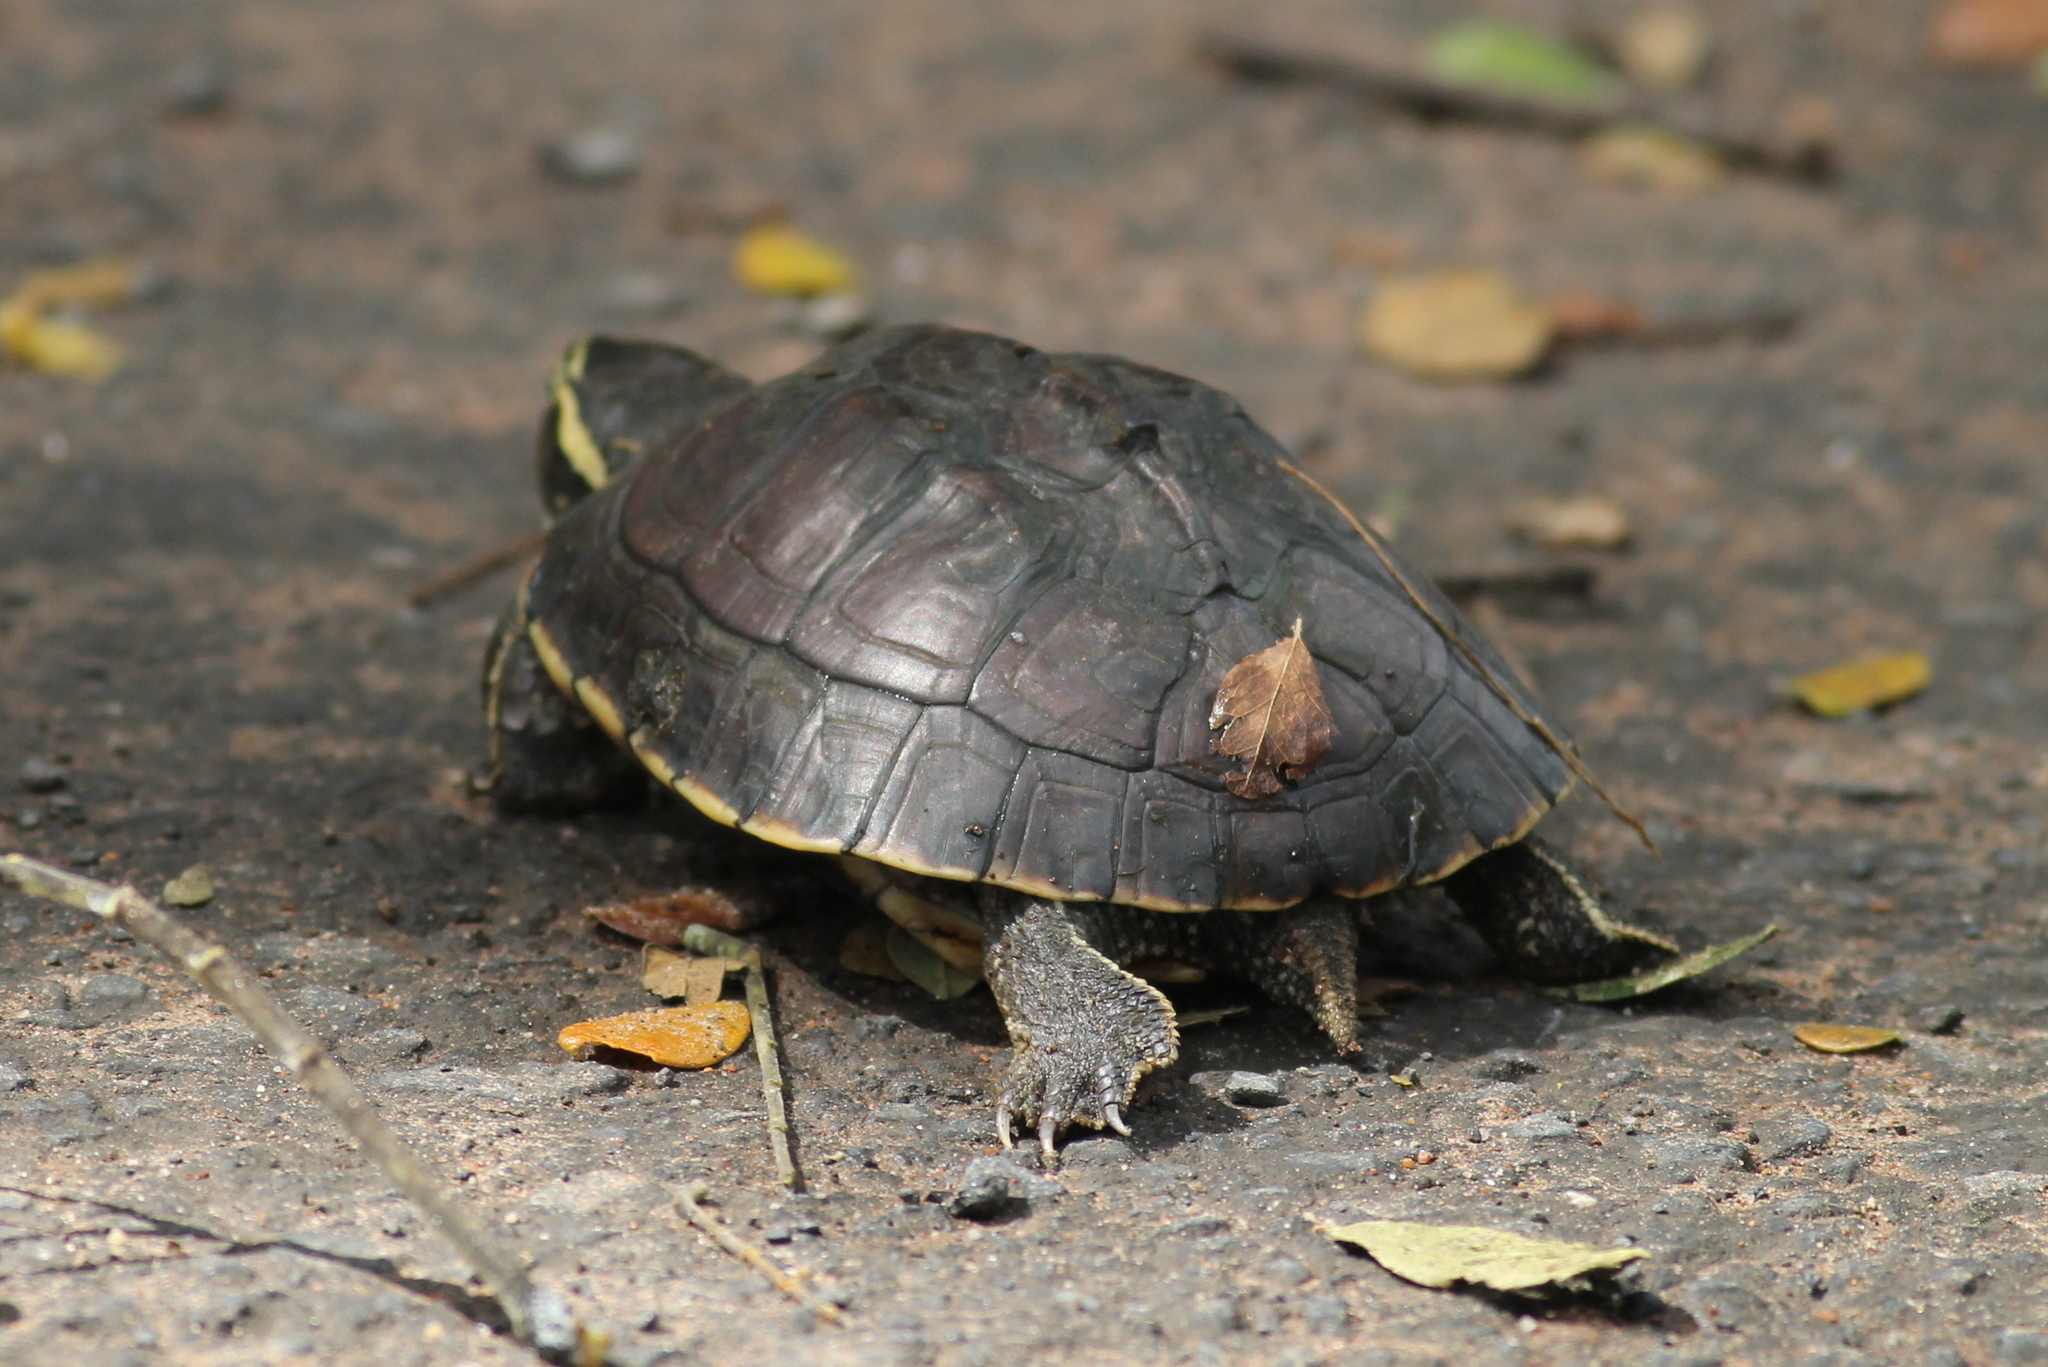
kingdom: Animalia
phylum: Chordata
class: Testudines
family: Geoemydidae
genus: Malayemys
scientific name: Malayemys khoratensis
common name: Khorat snail-eating turtle
